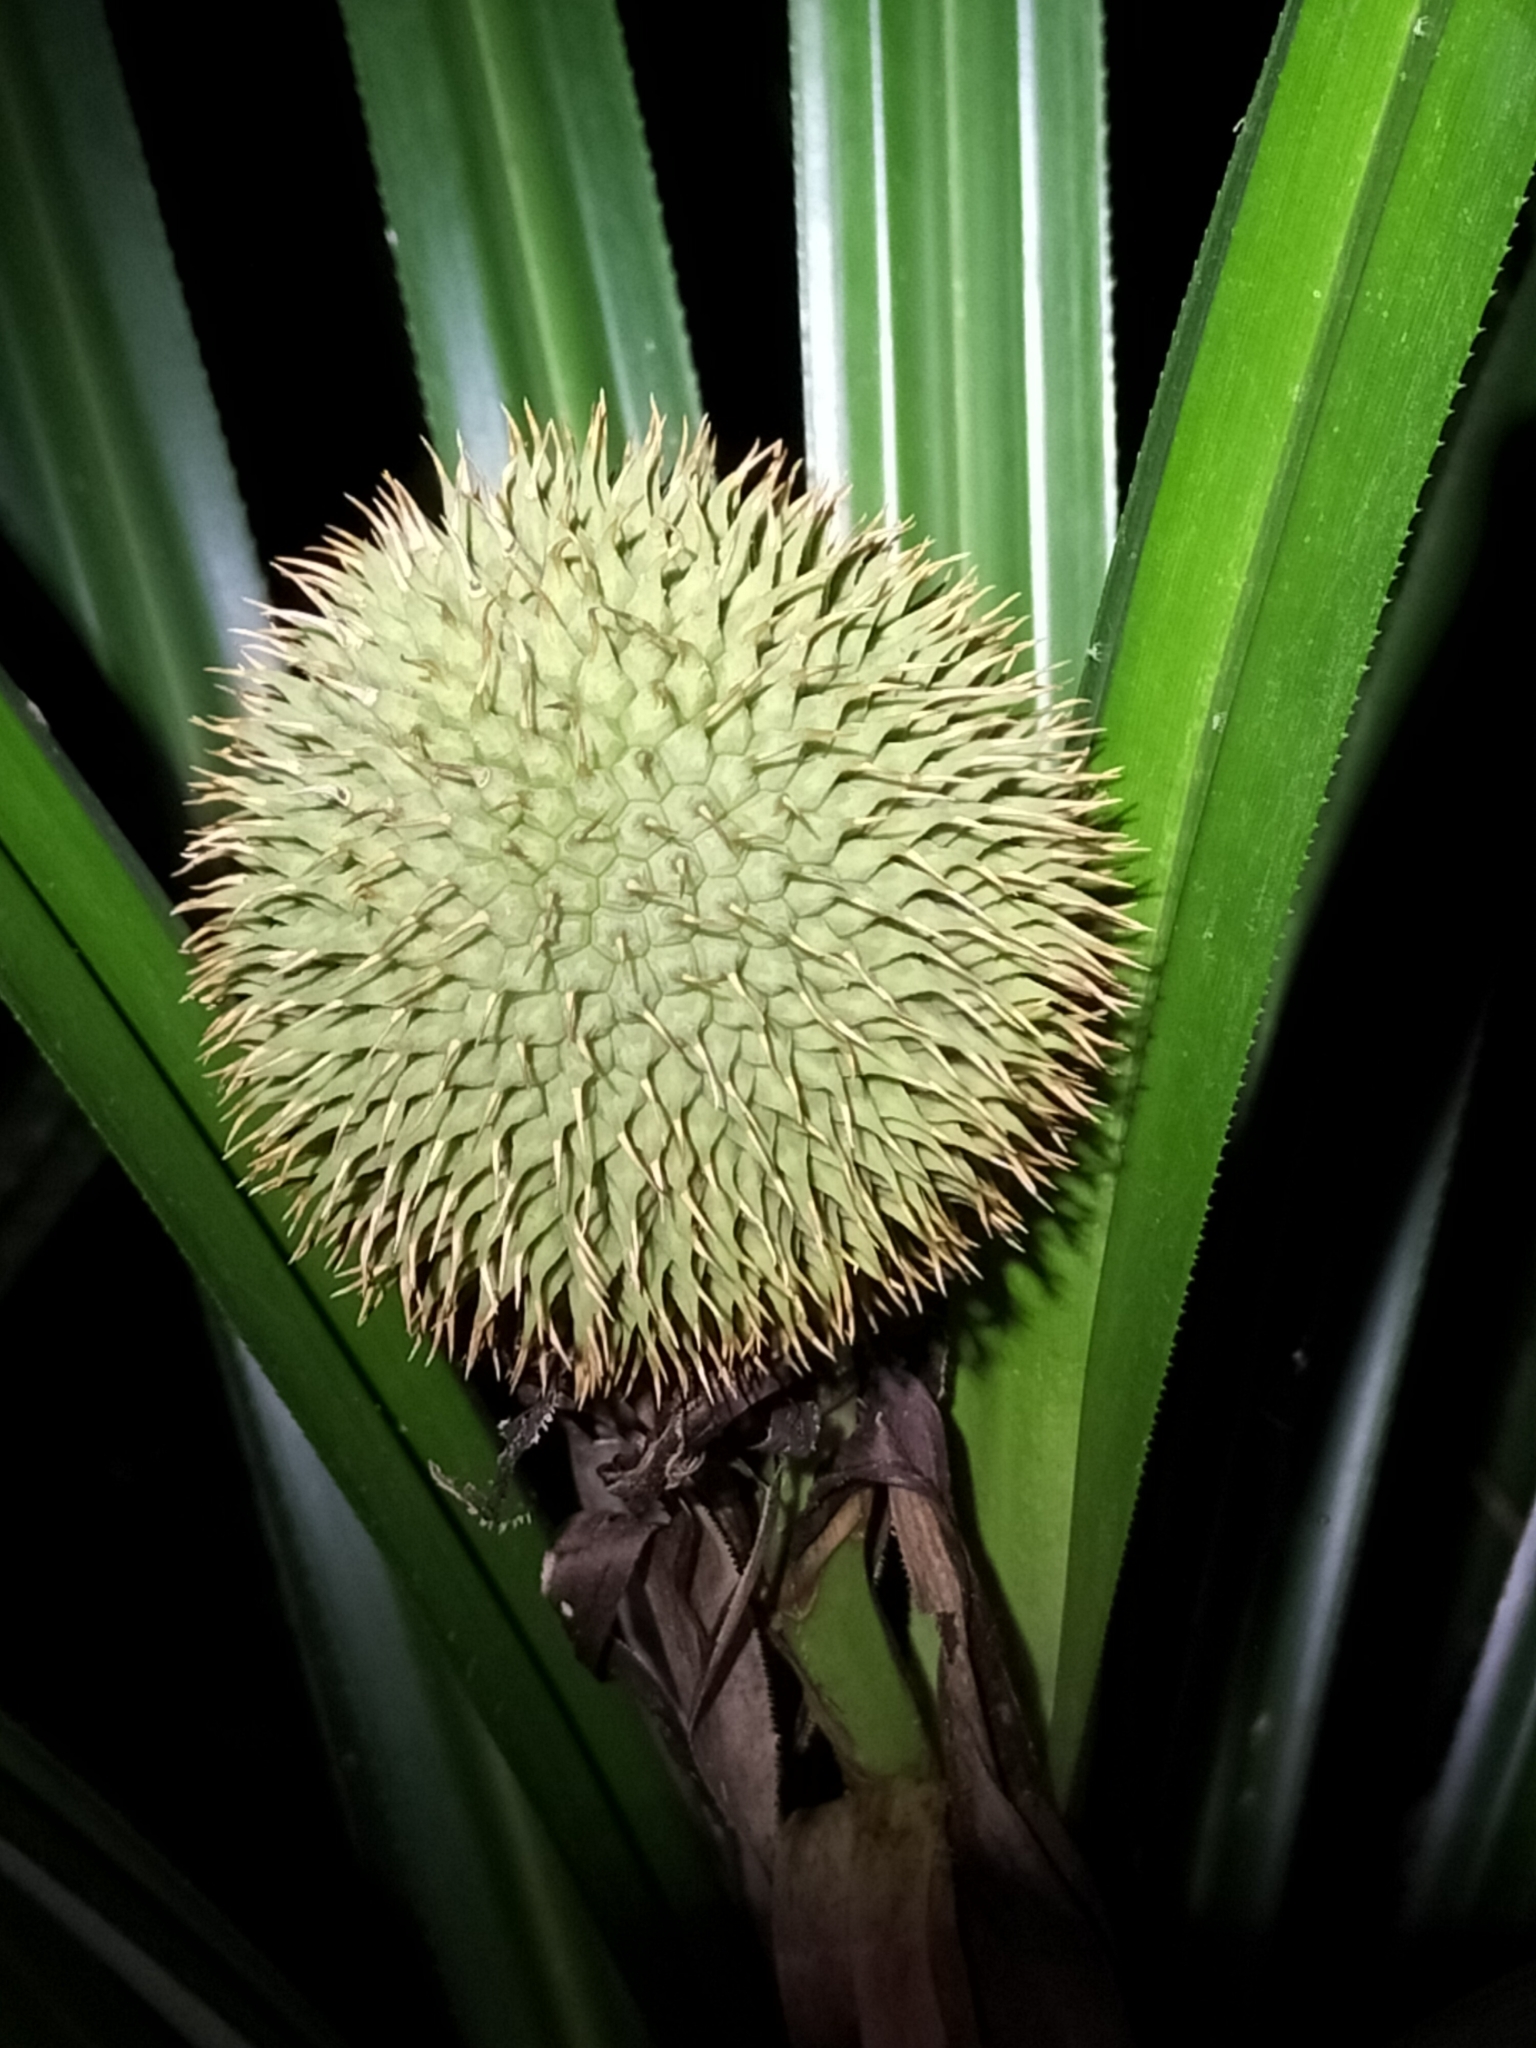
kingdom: Plantae
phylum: Tracheophyta
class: Liliopsida
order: Pandanales
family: Pandanaceae
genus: Benstonea
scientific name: Benstonea monticola
